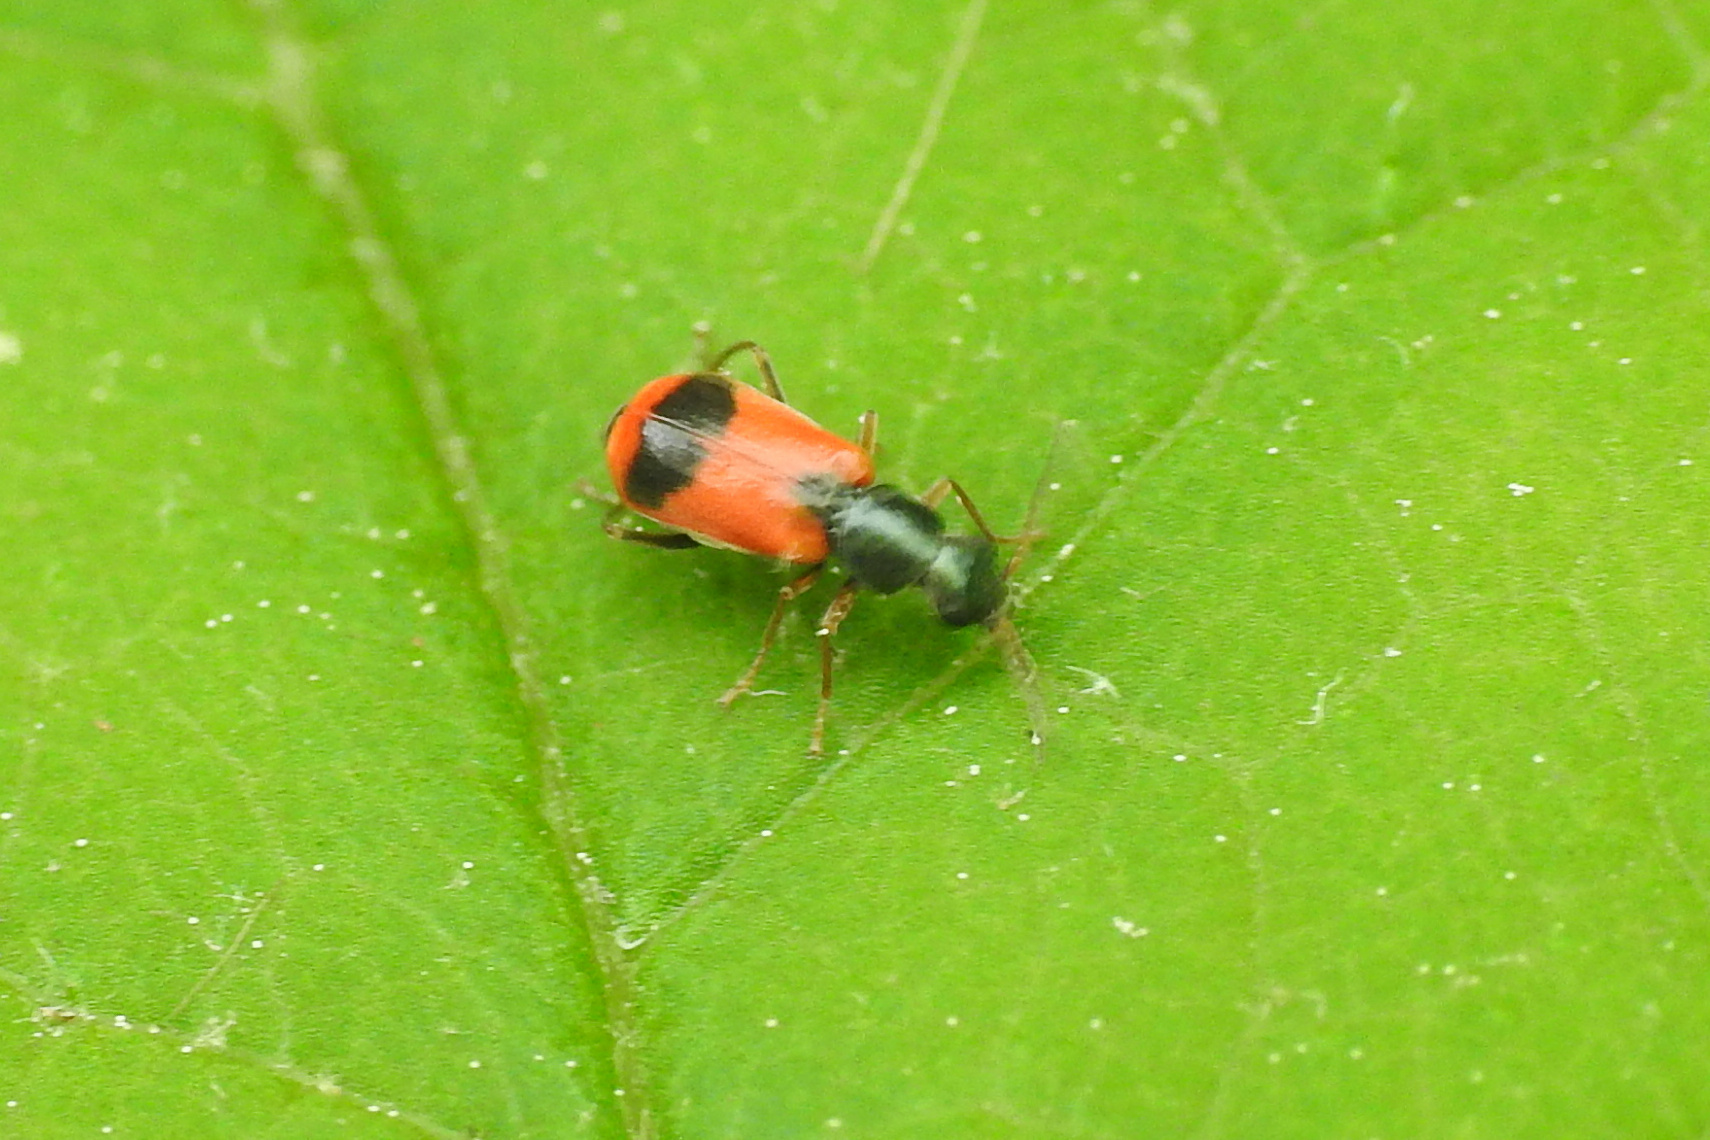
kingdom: Animalia
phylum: Arthropoda
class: Insecta
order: Coleoptera
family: Melyridae
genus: Anthocomus
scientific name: Anthocomus equestris
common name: Black-banded soft-winged flower beetle
